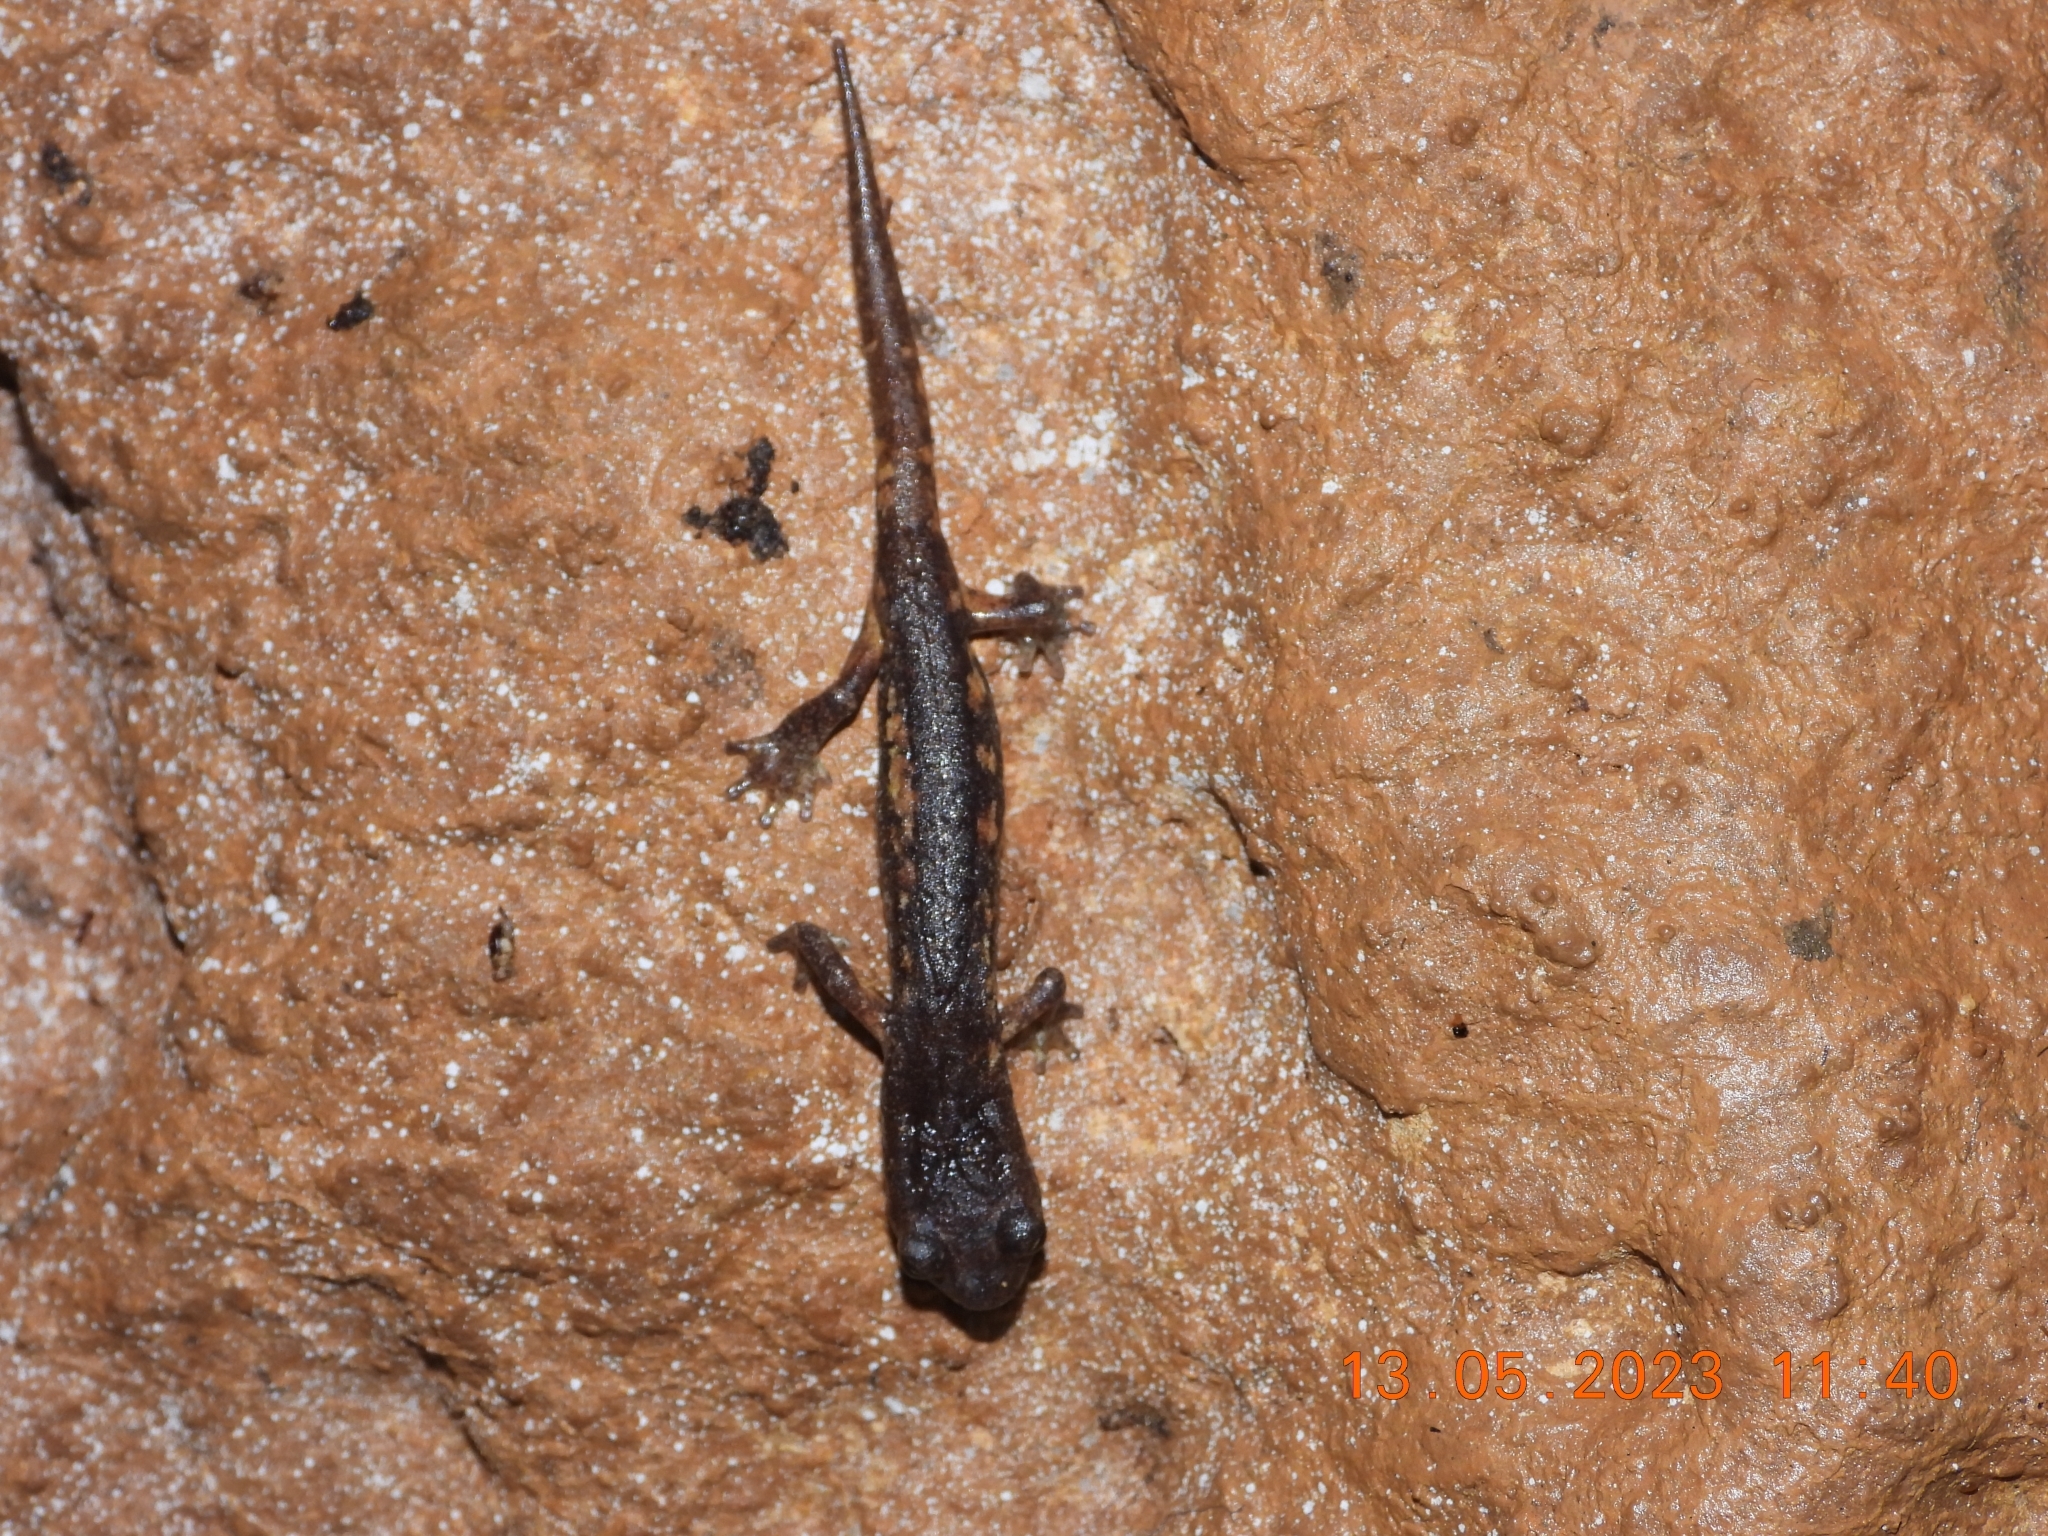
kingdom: Animalia
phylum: Chordata
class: Amphibia
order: Caudata
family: Plethodontidae
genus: Speleomantes
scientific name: Speleomantes ambrosii
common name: Ambrosi's cave salamander
